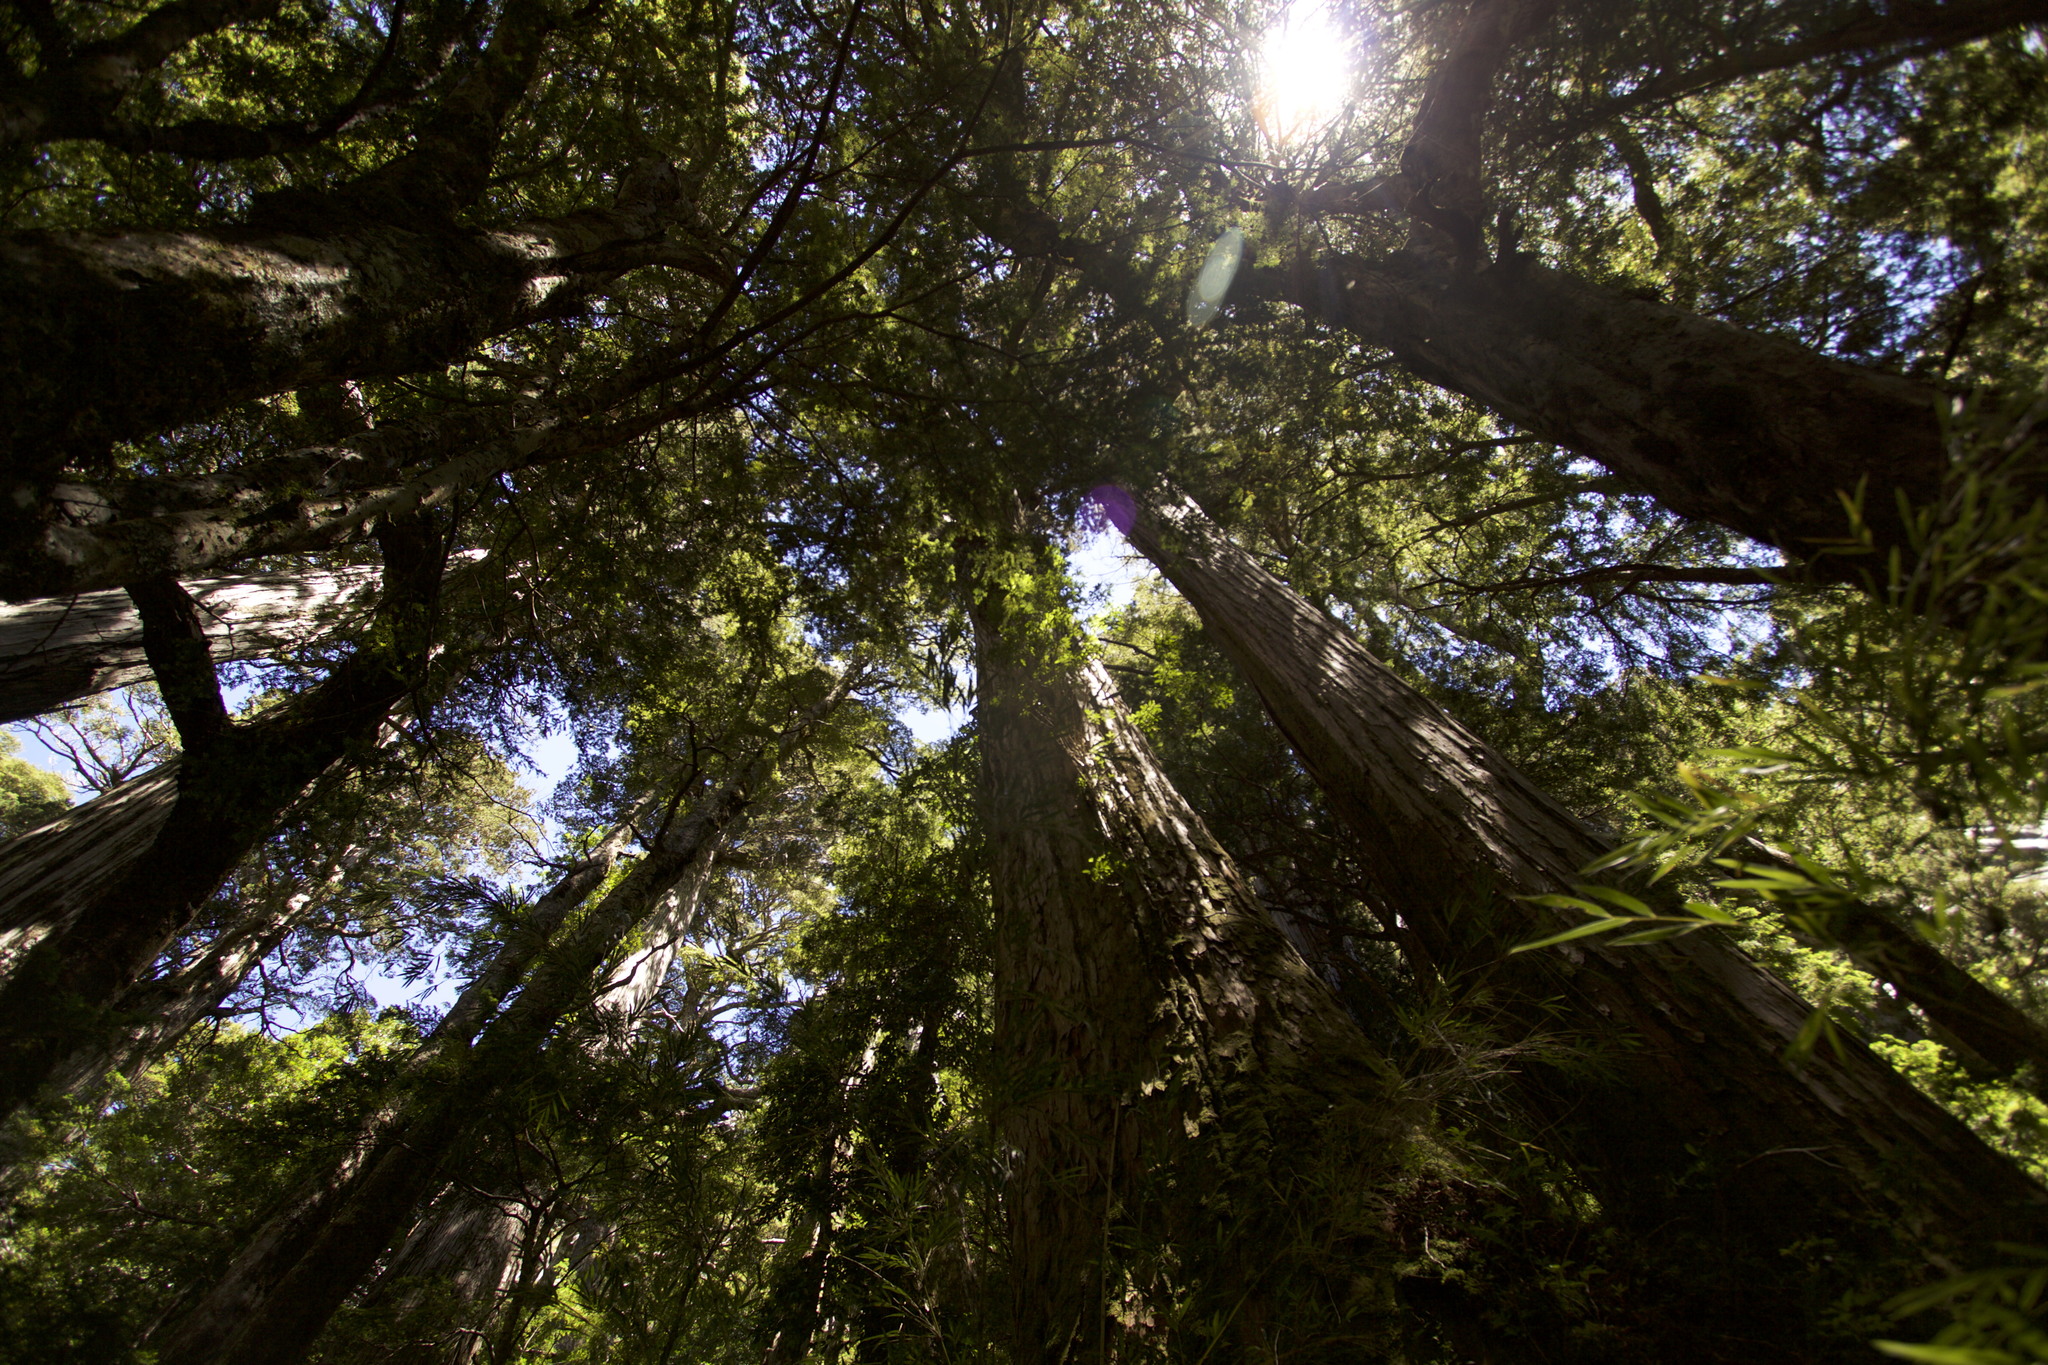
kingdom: Plantae
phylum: Tracheophyta
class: Pinopsida
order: Pinales
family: Cupressaceae
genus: Fitzroya
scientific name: Fitzroya cupressoides
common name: Patagonian cypress
